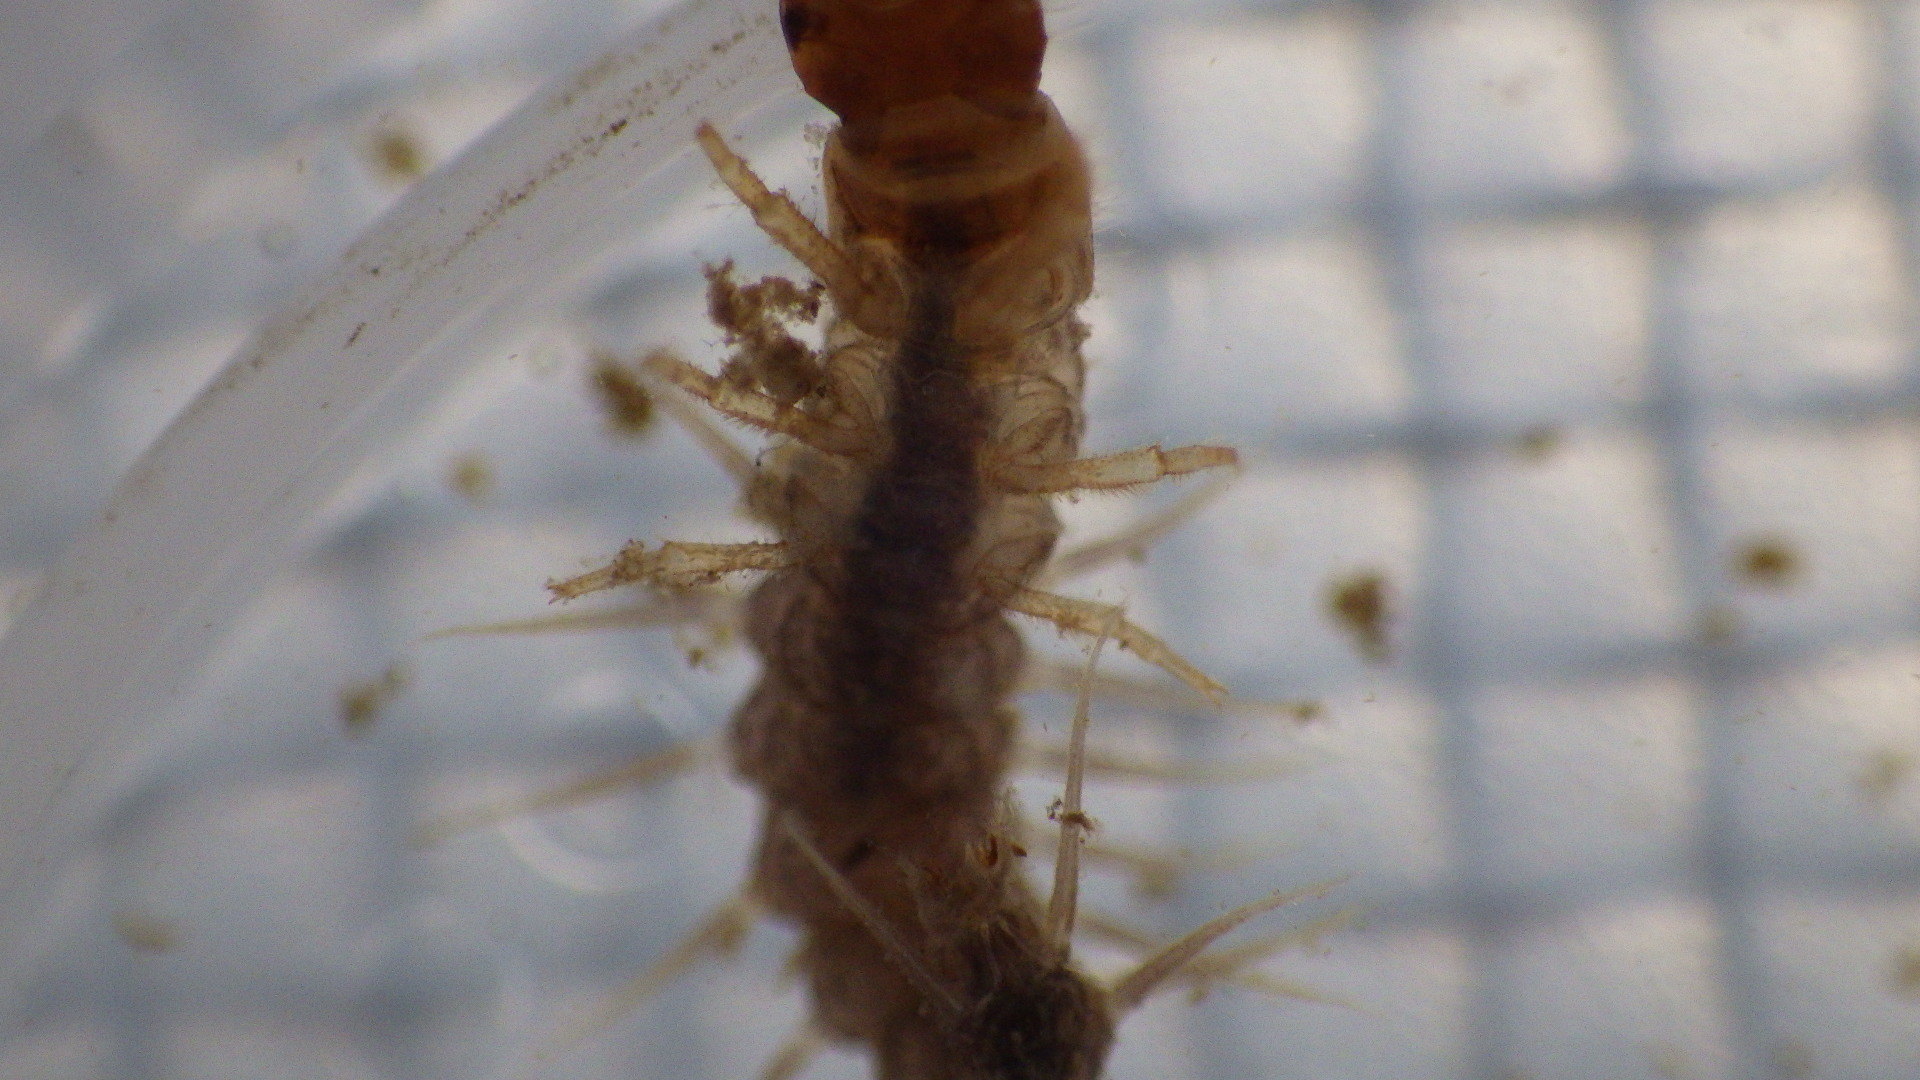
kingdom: Animalia
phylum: Arthropoda
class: Insecta
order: Megaloptera
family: Corydalidae
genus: Nigronia
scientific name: Nigronia fasciata
